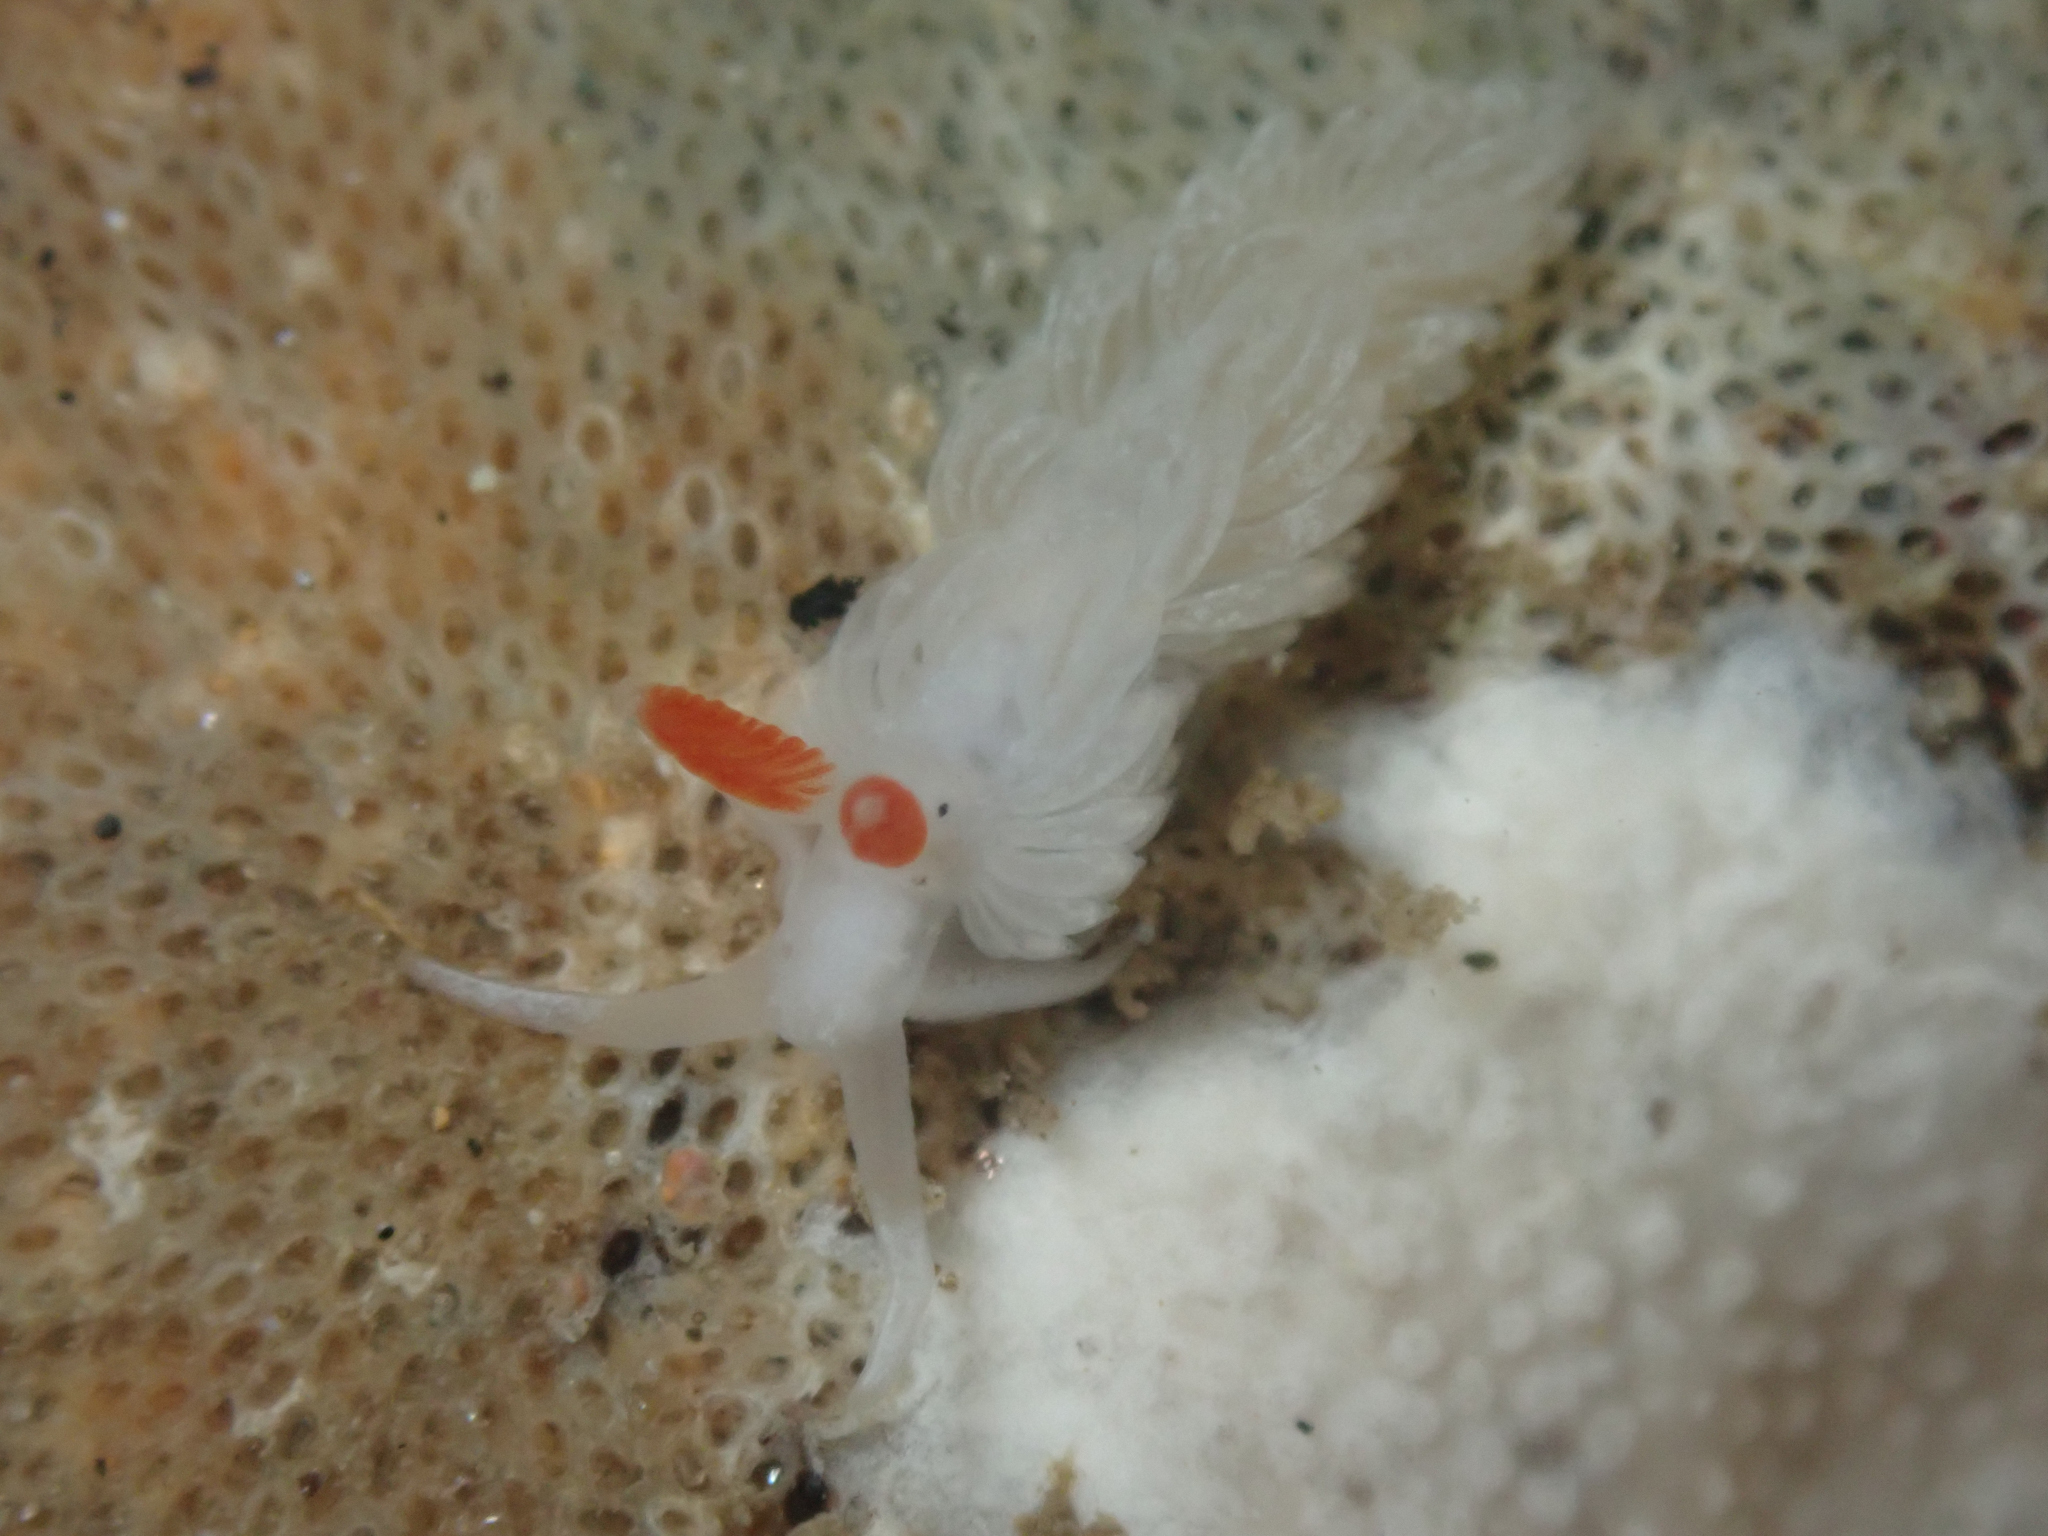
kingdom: Animalia
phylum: Mollusca
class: Gastropoda
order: Nudibranchia
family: Aeolidiidae
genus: Anteaeolidiella
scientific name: Anteaeolidiella oliviae
